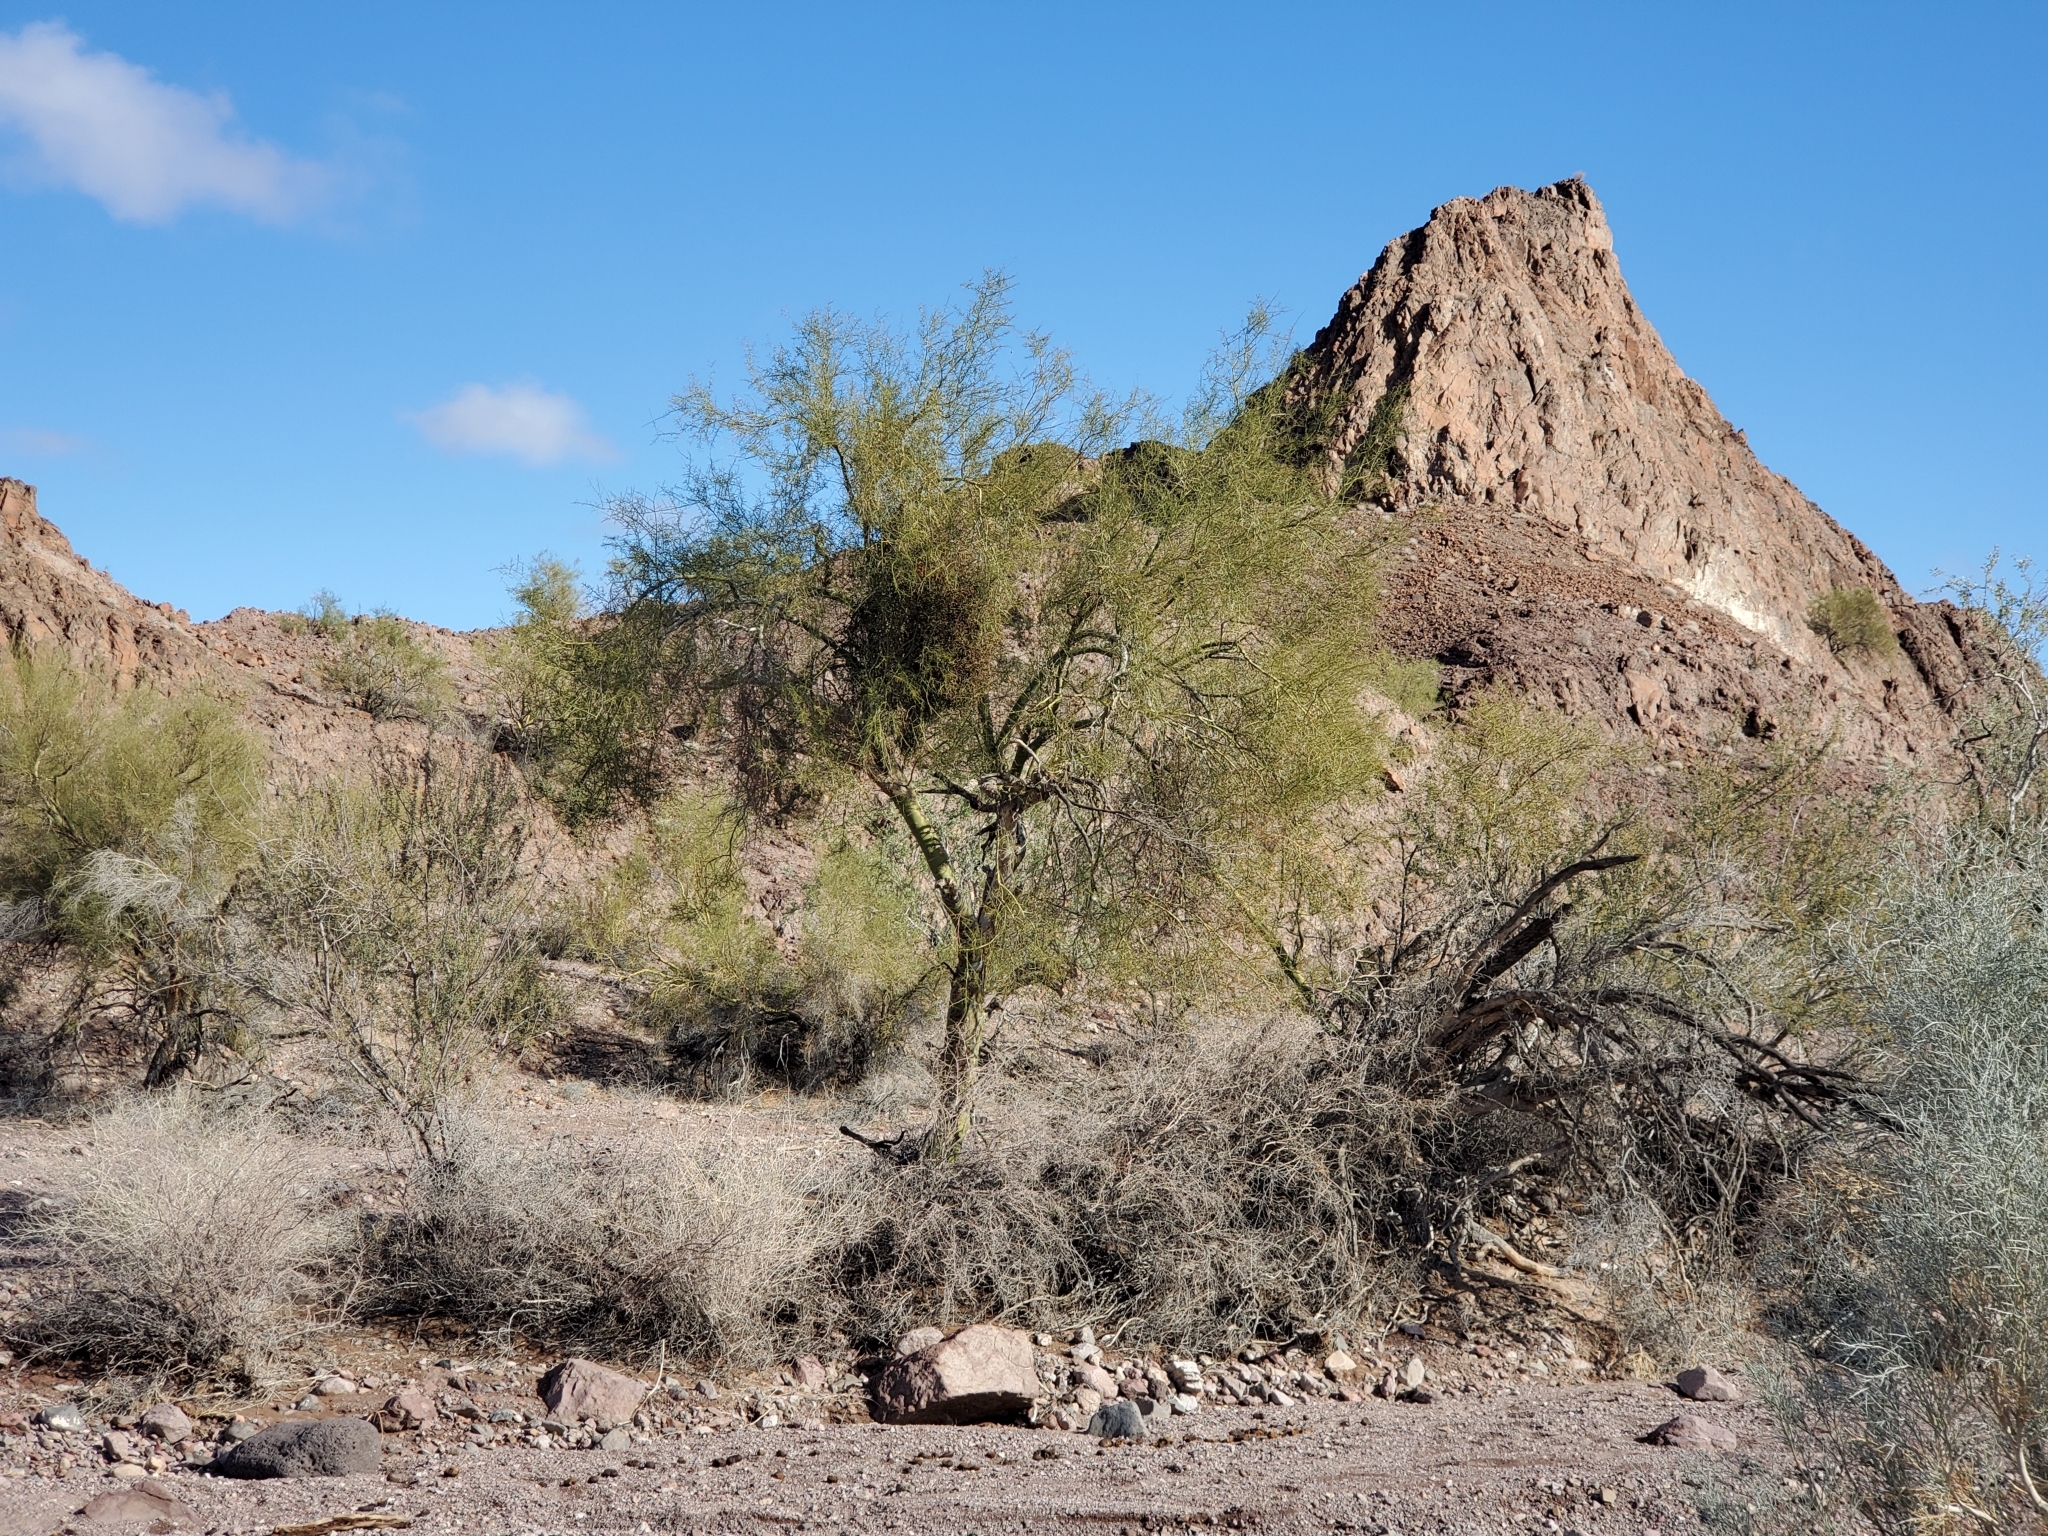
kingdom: Plantae
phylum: Tracheophyta
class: Magnoliopsida
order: Santalales
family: Viscaceae
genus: Phoradendron
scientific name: Phoradendron californicum
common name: Acacia mistletoe
